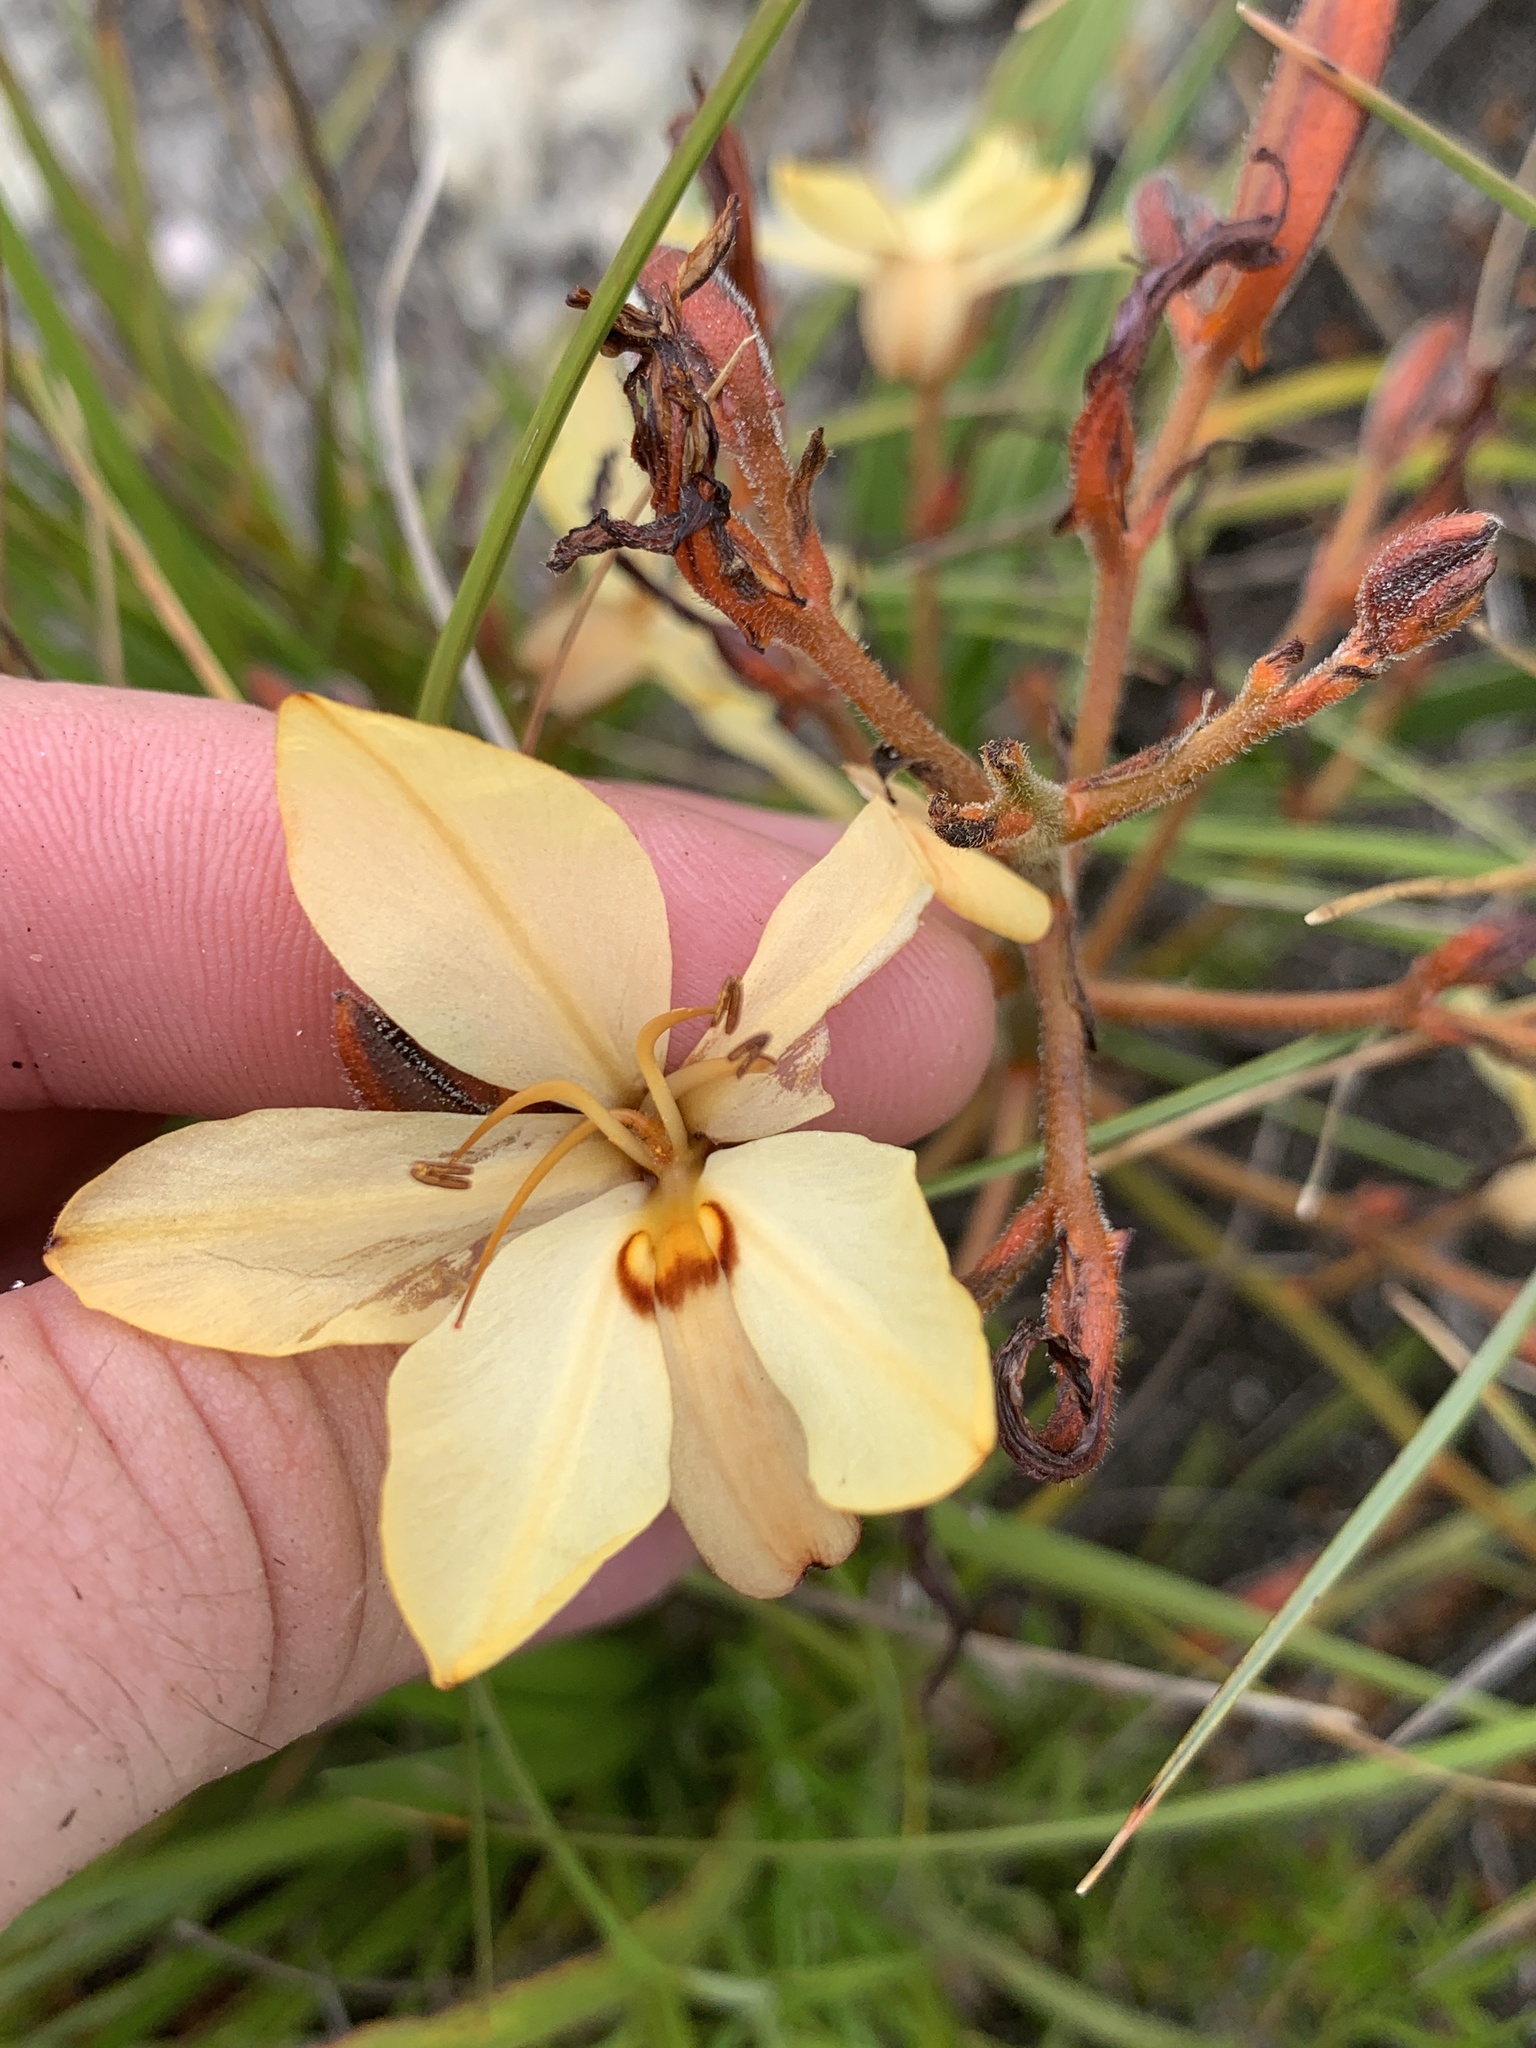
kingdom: Plantae
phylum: Tracheophyta
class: Liliopsida
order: Commelinales
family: Haemodoraceae
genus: Wachendorfia
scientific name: Wachendorfia paniculata
